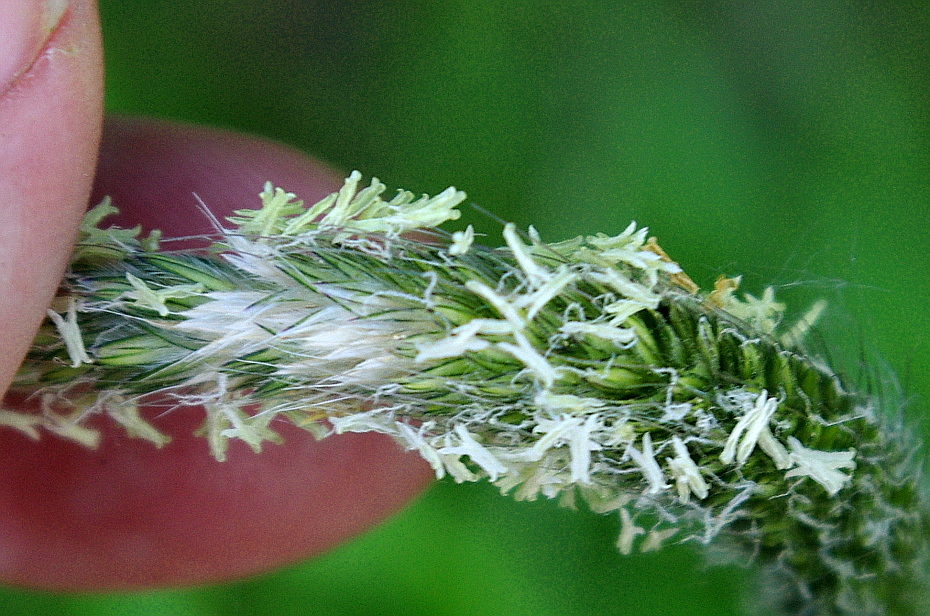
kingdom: Plantae
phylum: Tracheophyta
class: Liliopsida
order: Poales
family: Poaceae
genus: Alopecurus
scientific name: Alopecurus pratensis
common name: Meadow foxtail
